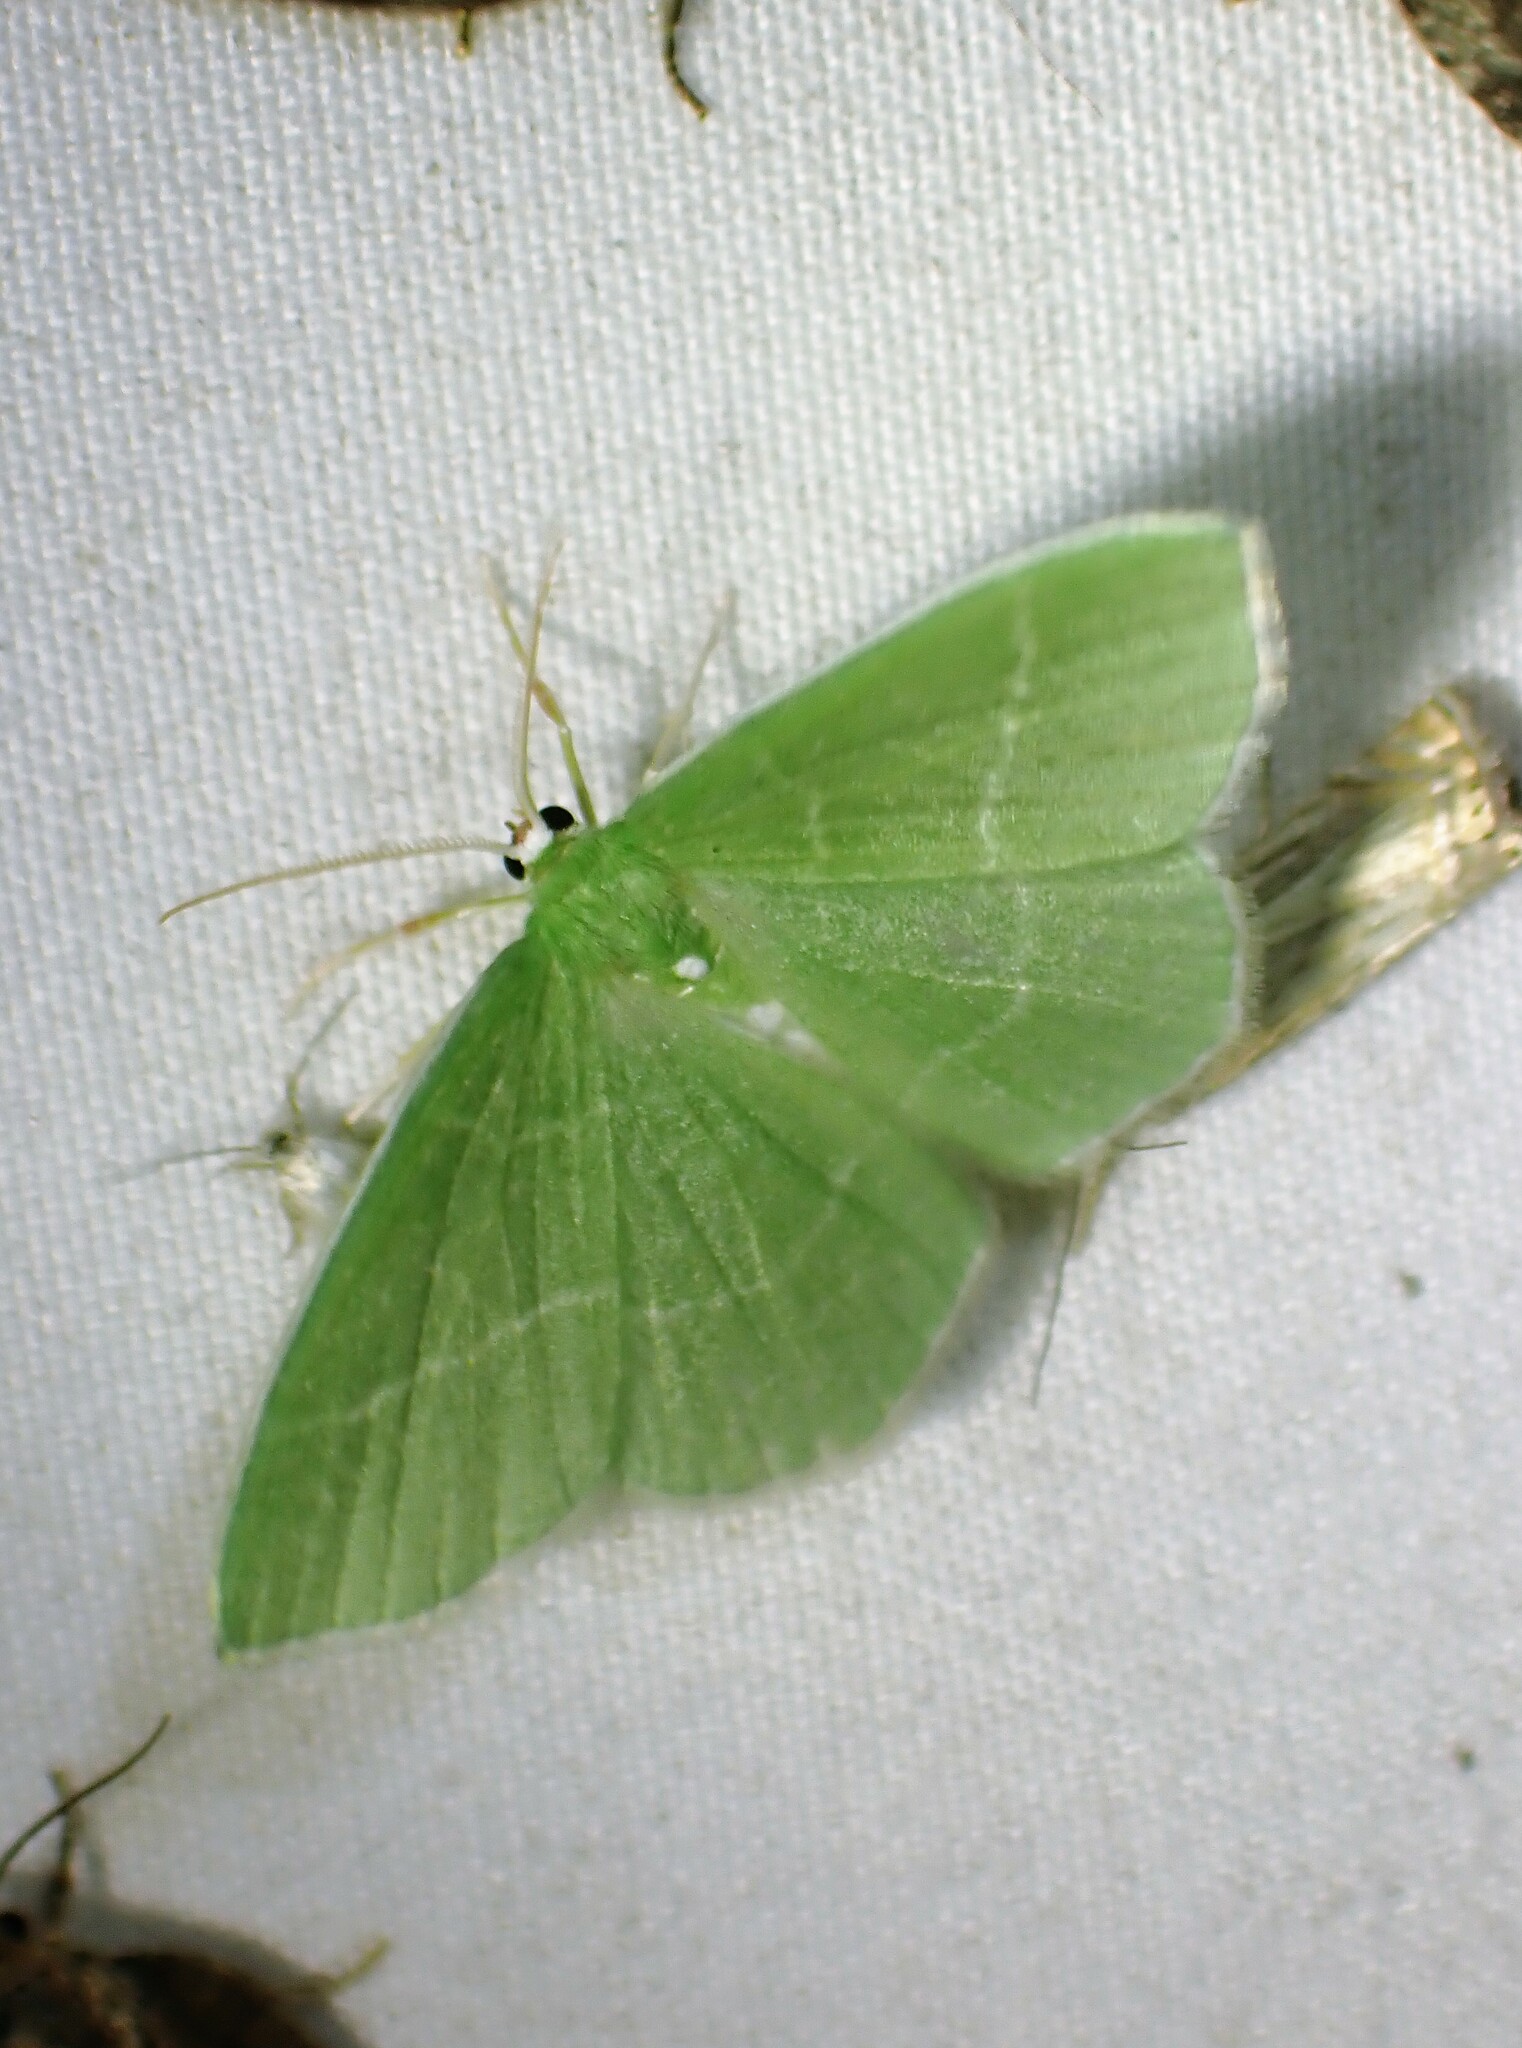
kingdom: Animalia
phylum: Arthropoda
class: Insecta
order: Lepidoptera
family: Geometridae
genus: Nemoria
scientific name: Nemoria mimosaria
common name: White-fringed emerald
